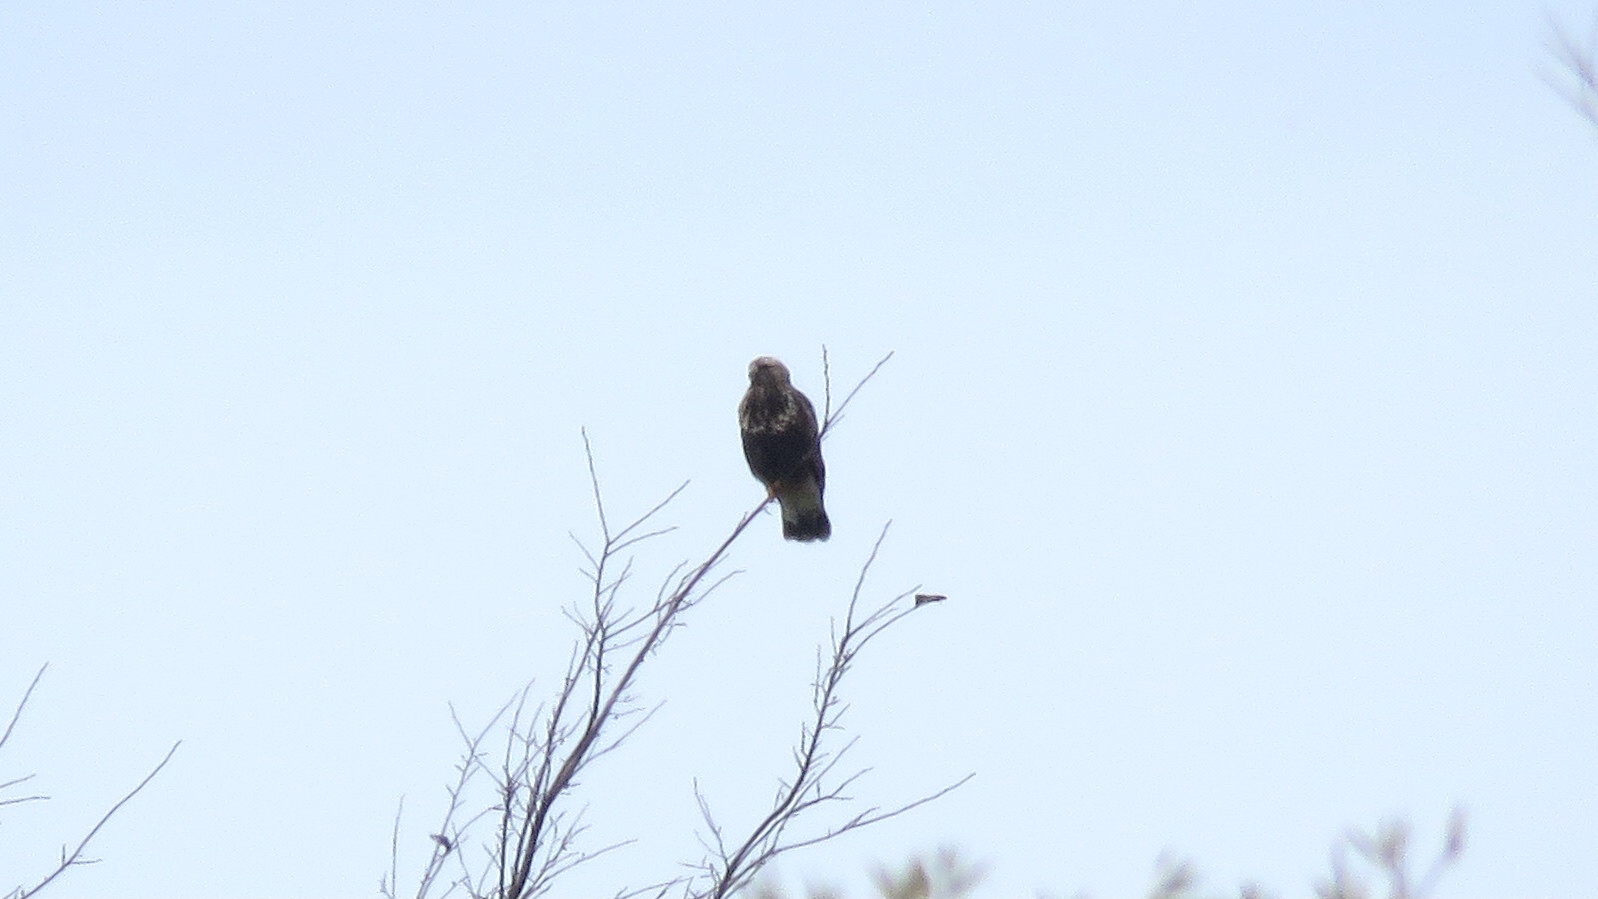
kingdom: Animalia
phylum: Chordata
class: Aves
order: Accipitriformes
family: Accipitridae
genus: Buteo
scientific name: Buteo lagopus
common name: Rough-legged buzzard
